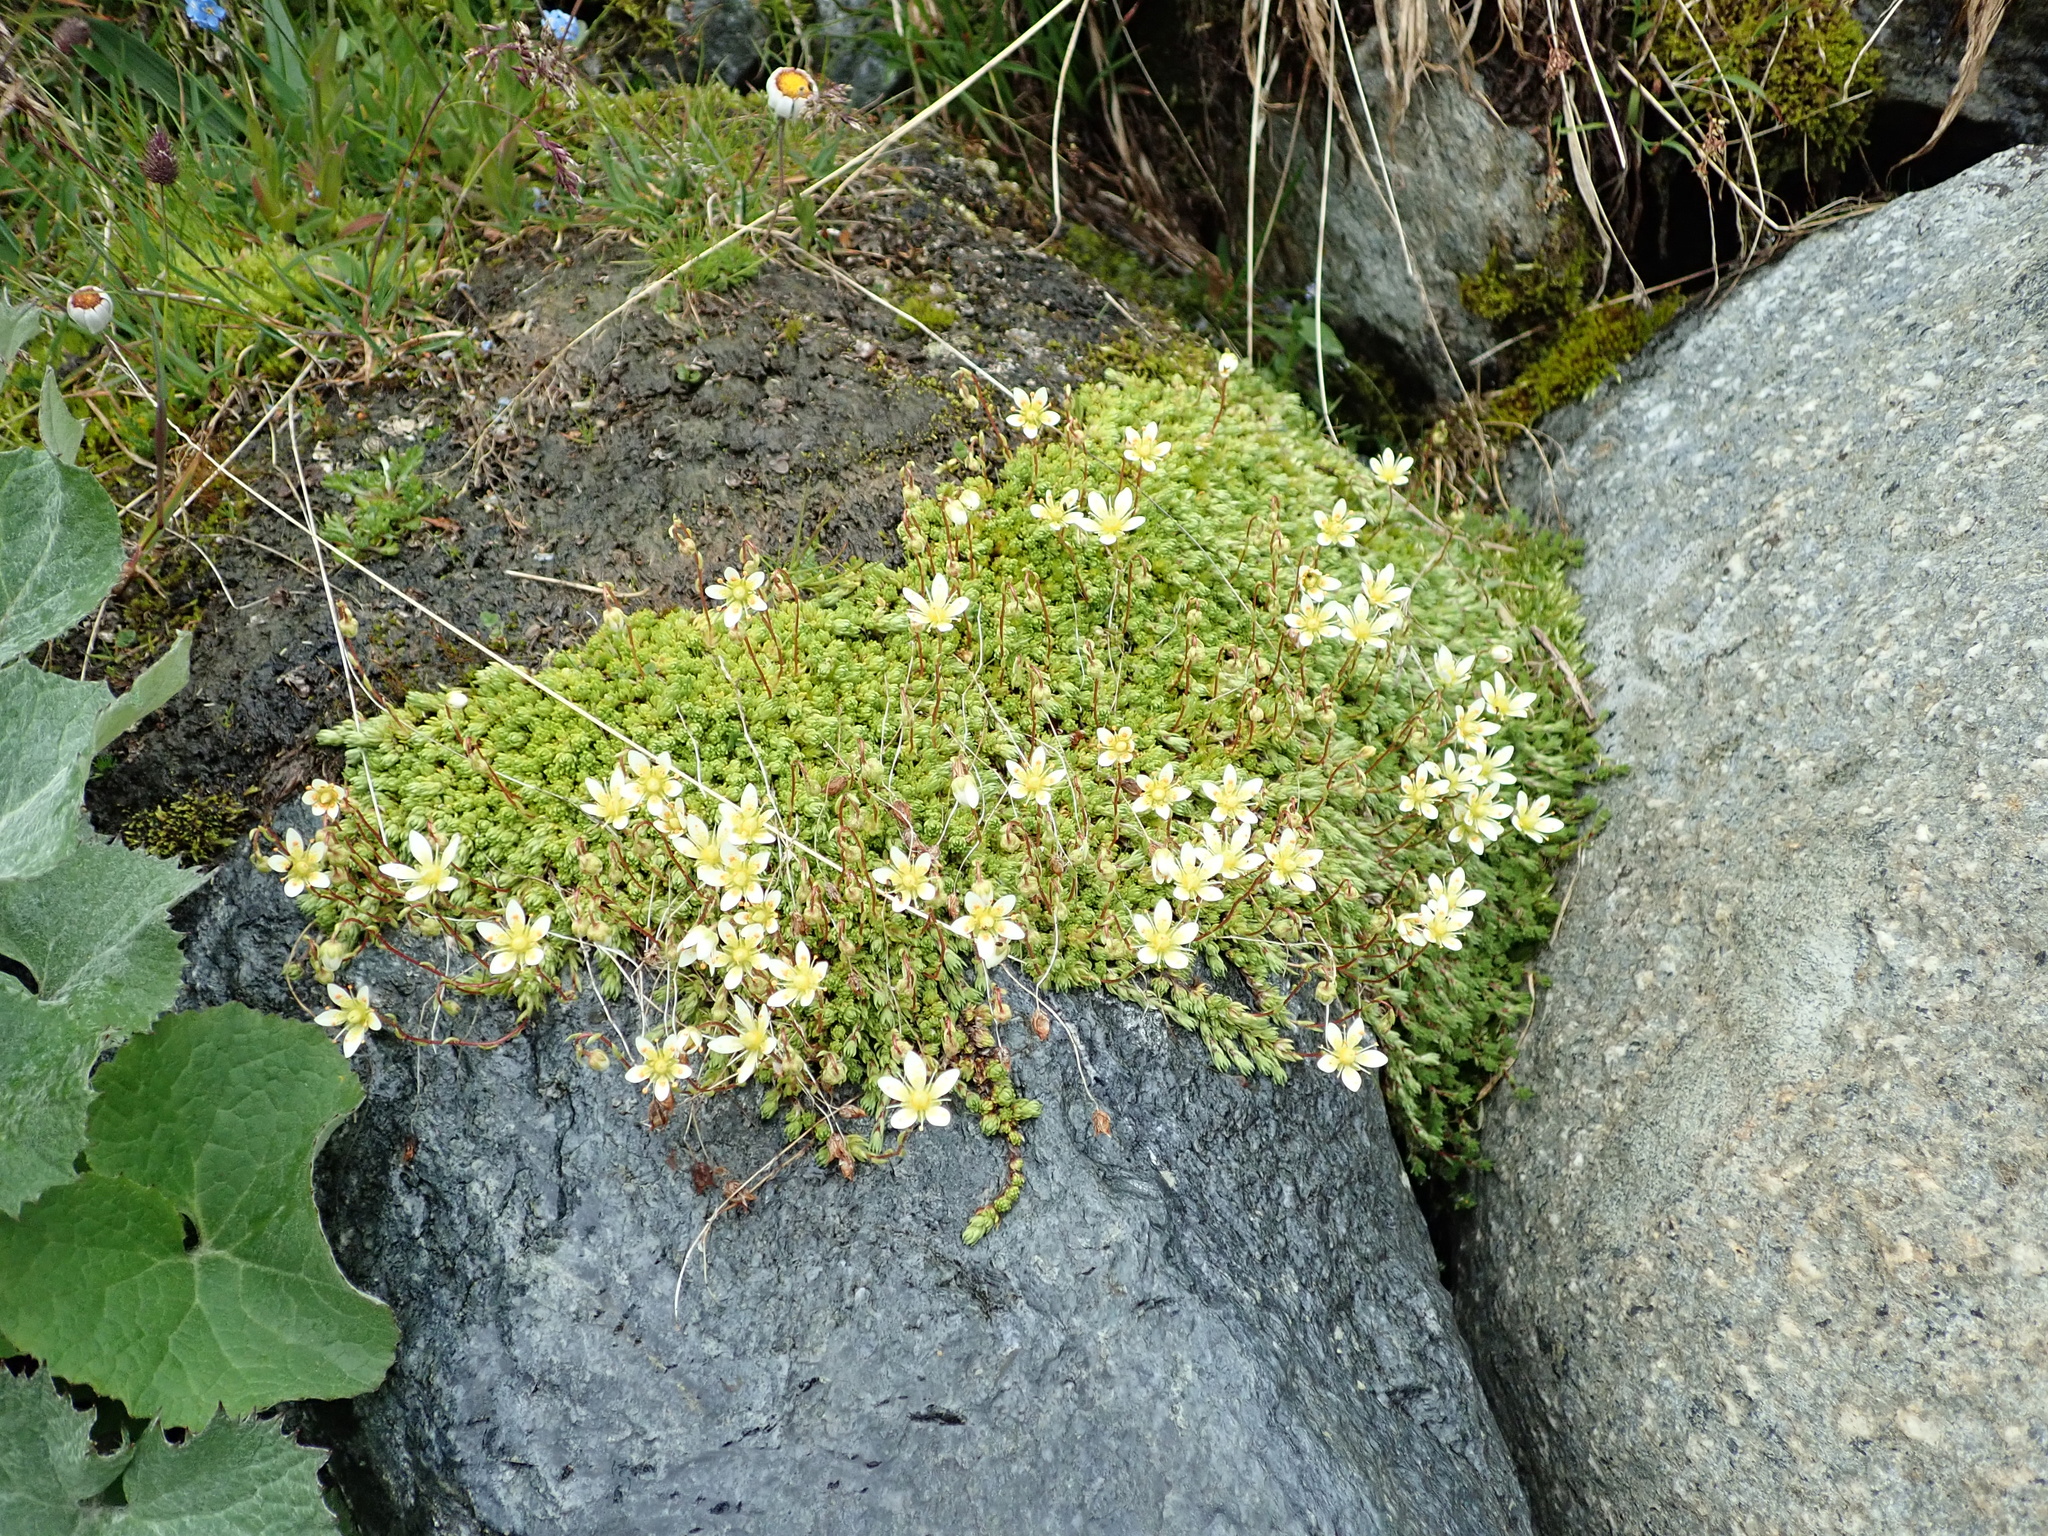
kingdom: Plantae
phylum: Tracheophyta
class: Magnoliopsida
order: Saxifragales
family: Saxifragaceae
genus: Saxifraga
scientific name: Saxifraga bryoides
